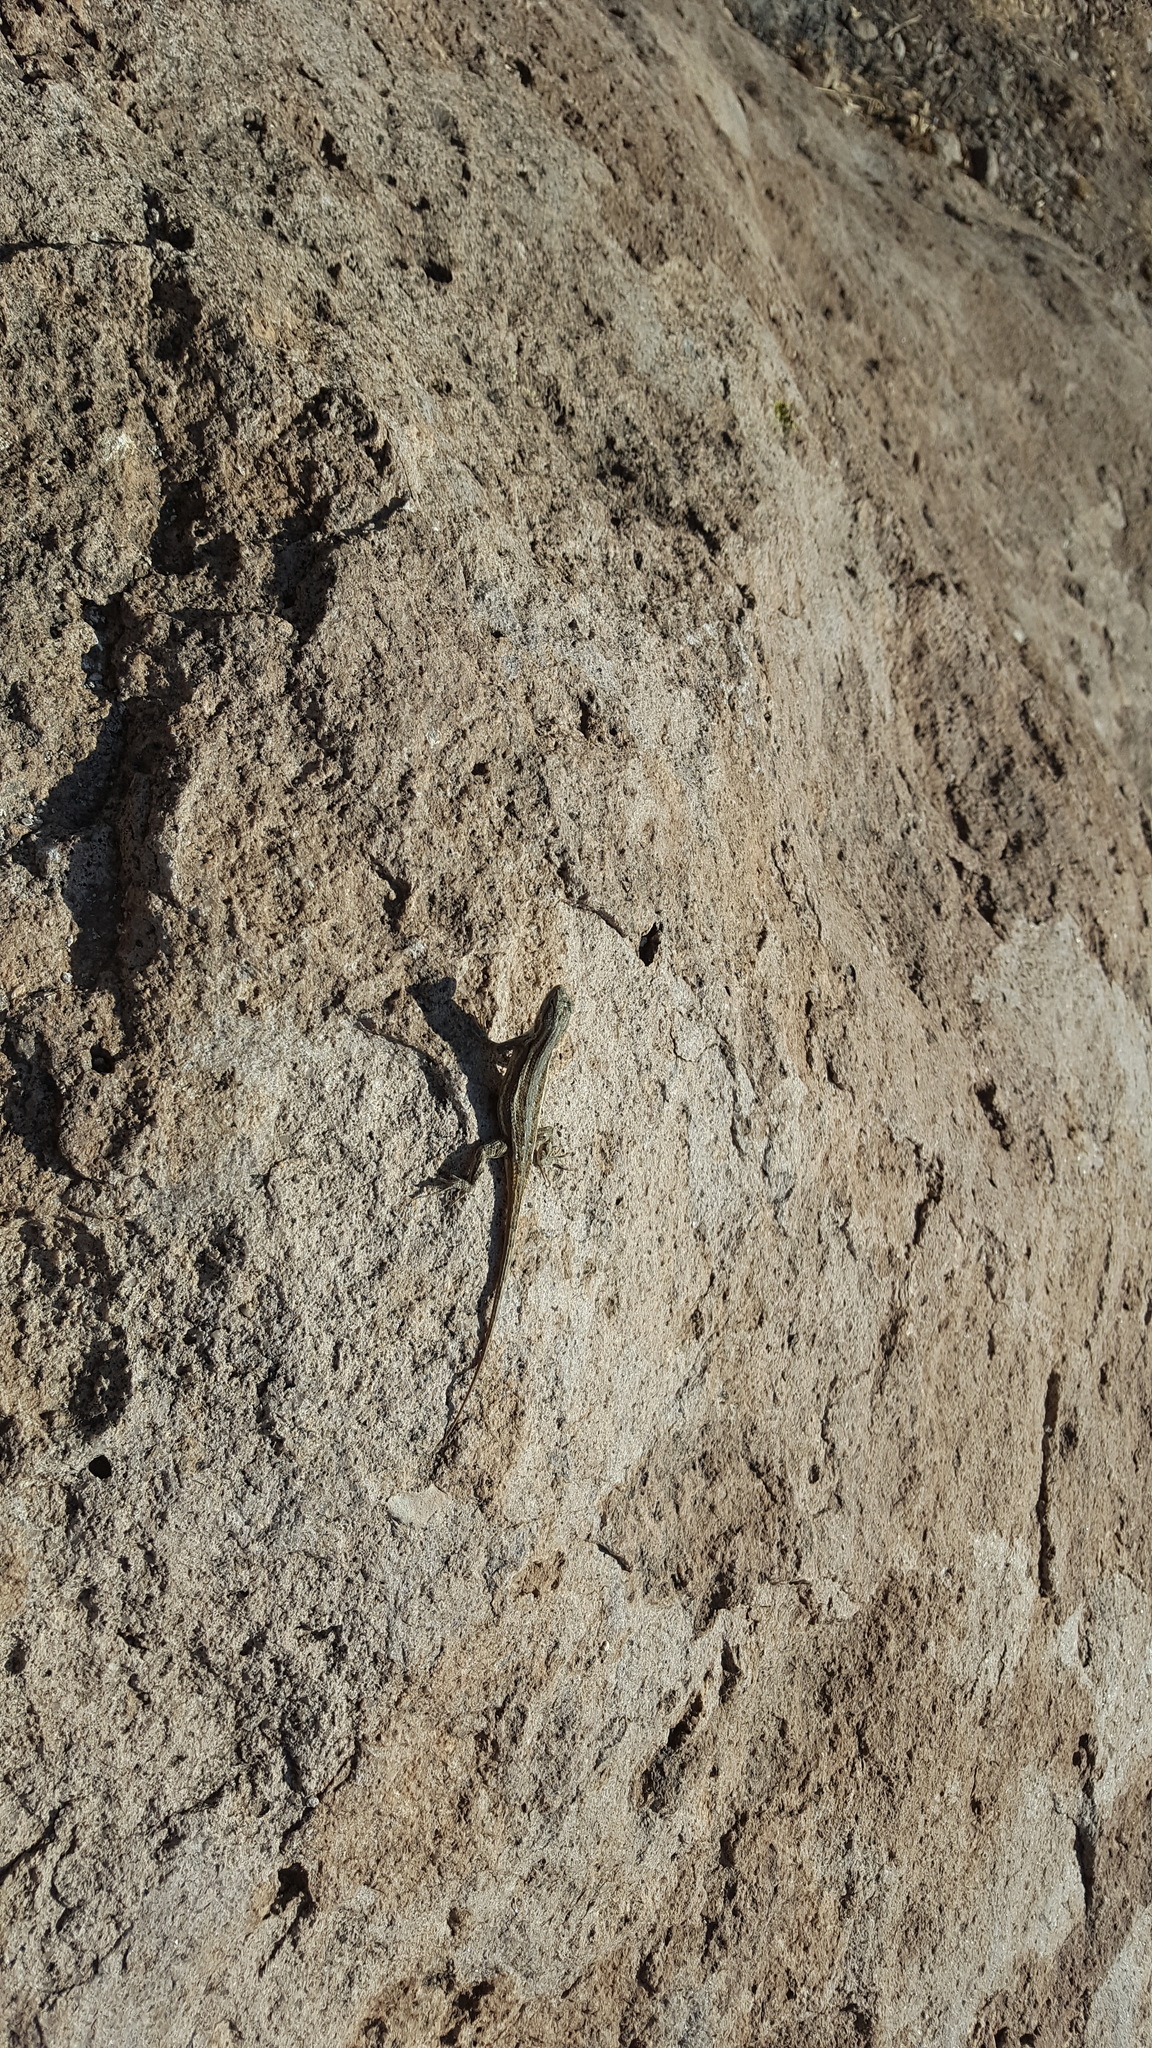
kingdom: Animalia
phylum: Chordata
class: Squamata
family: Phrynosomatidae
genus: Sceloporus
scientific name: Sceloporus cowlesi
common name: White sands prairie lizard
